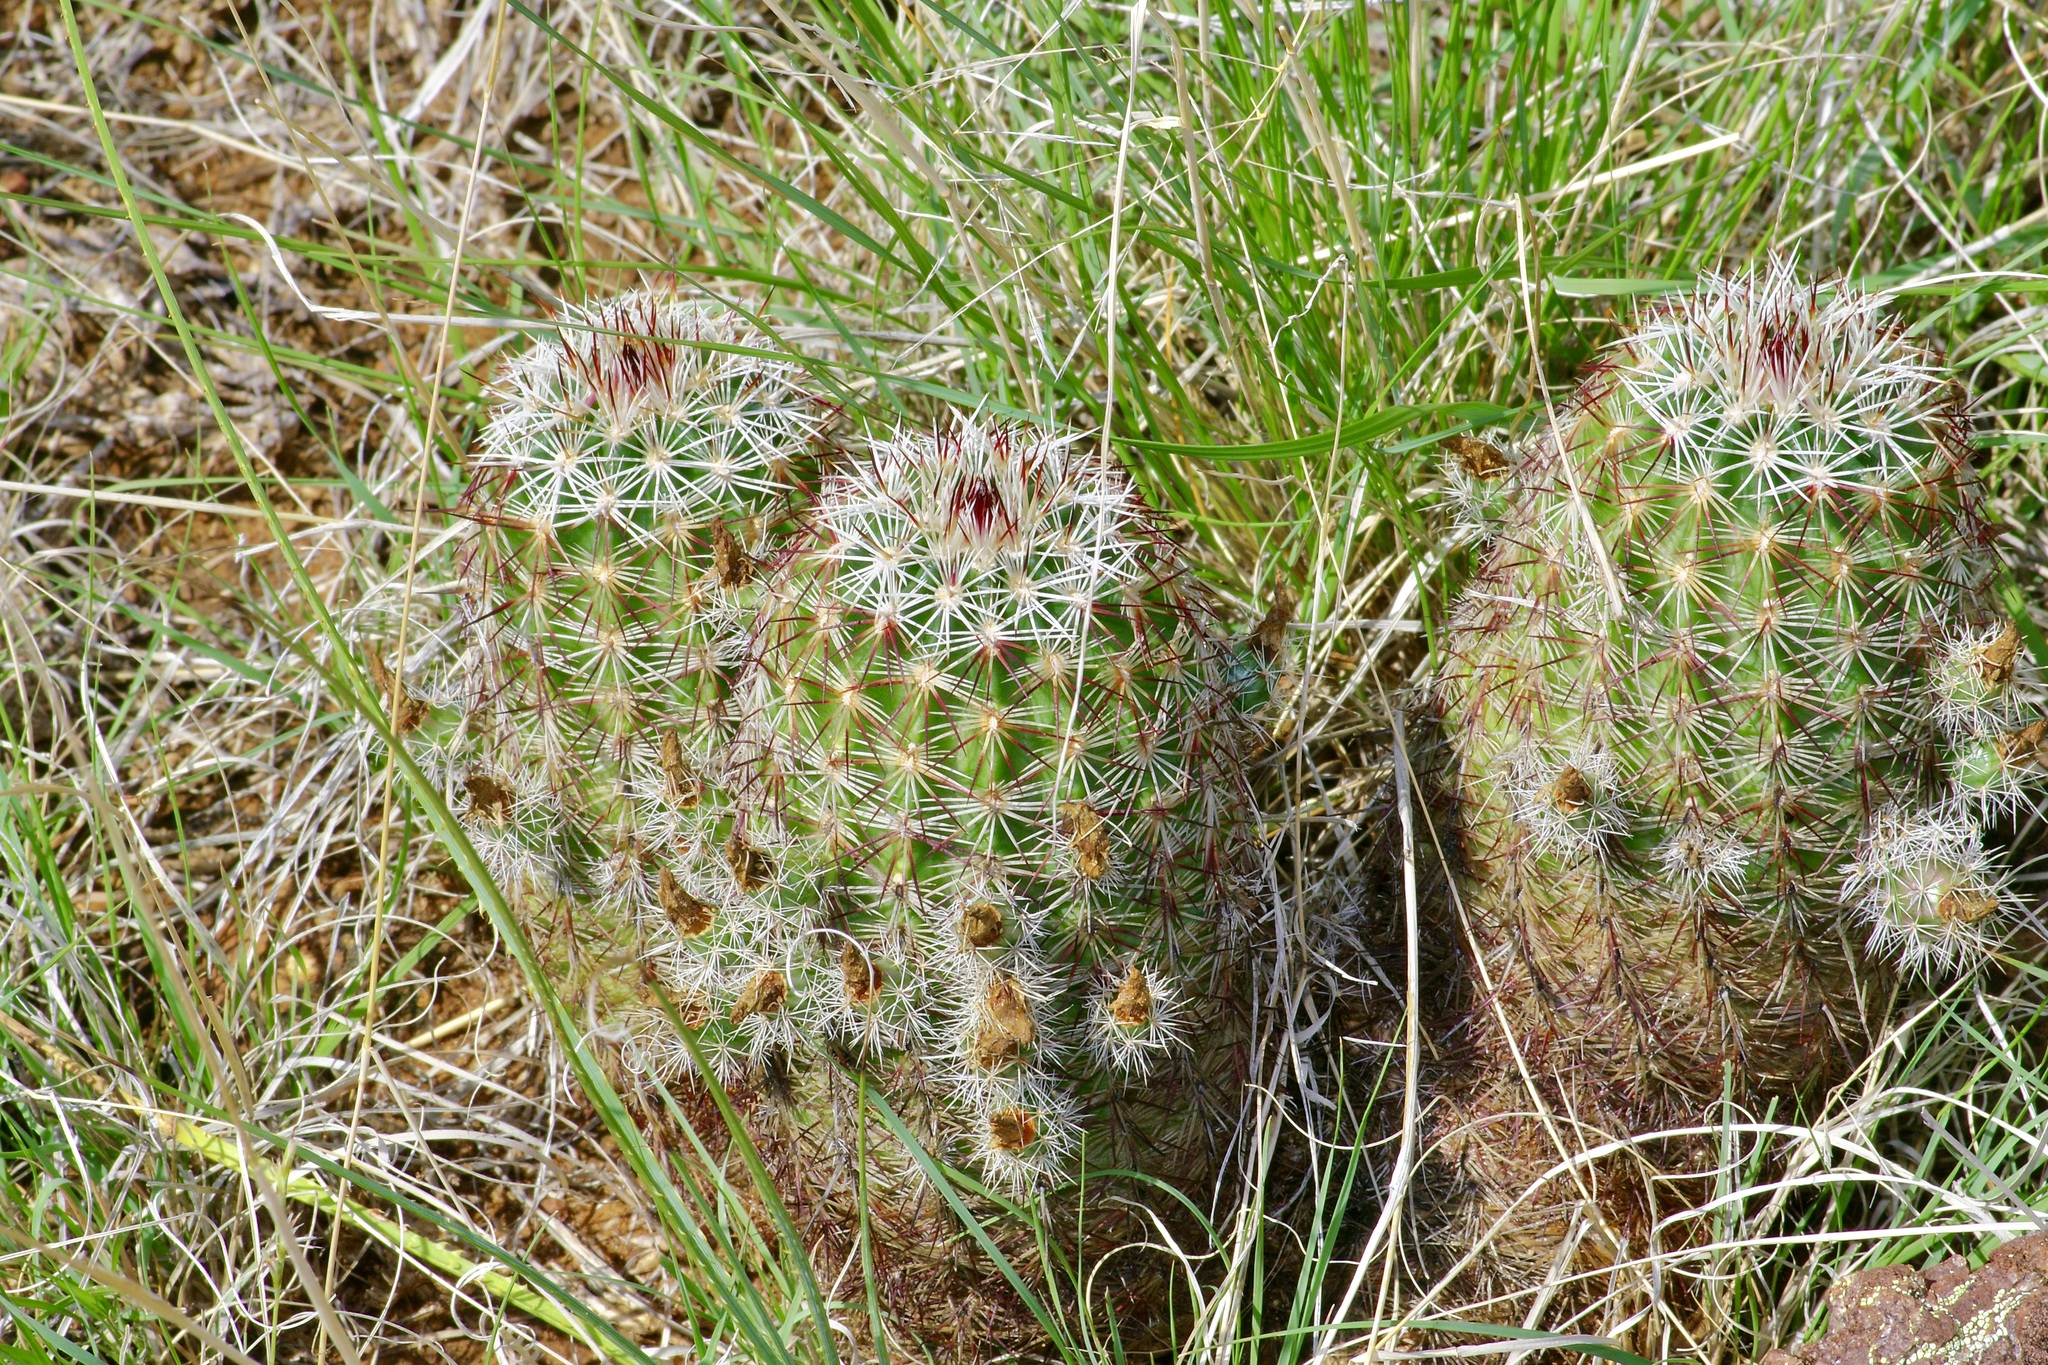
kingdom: Plantae
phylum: Tracheophyta
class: Magnoliopsida
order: Caryophyllales
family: Cactaceae
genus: Echinocereus
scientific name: Echinocereus viridiflorus
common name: Nylon hedgehog cactus
